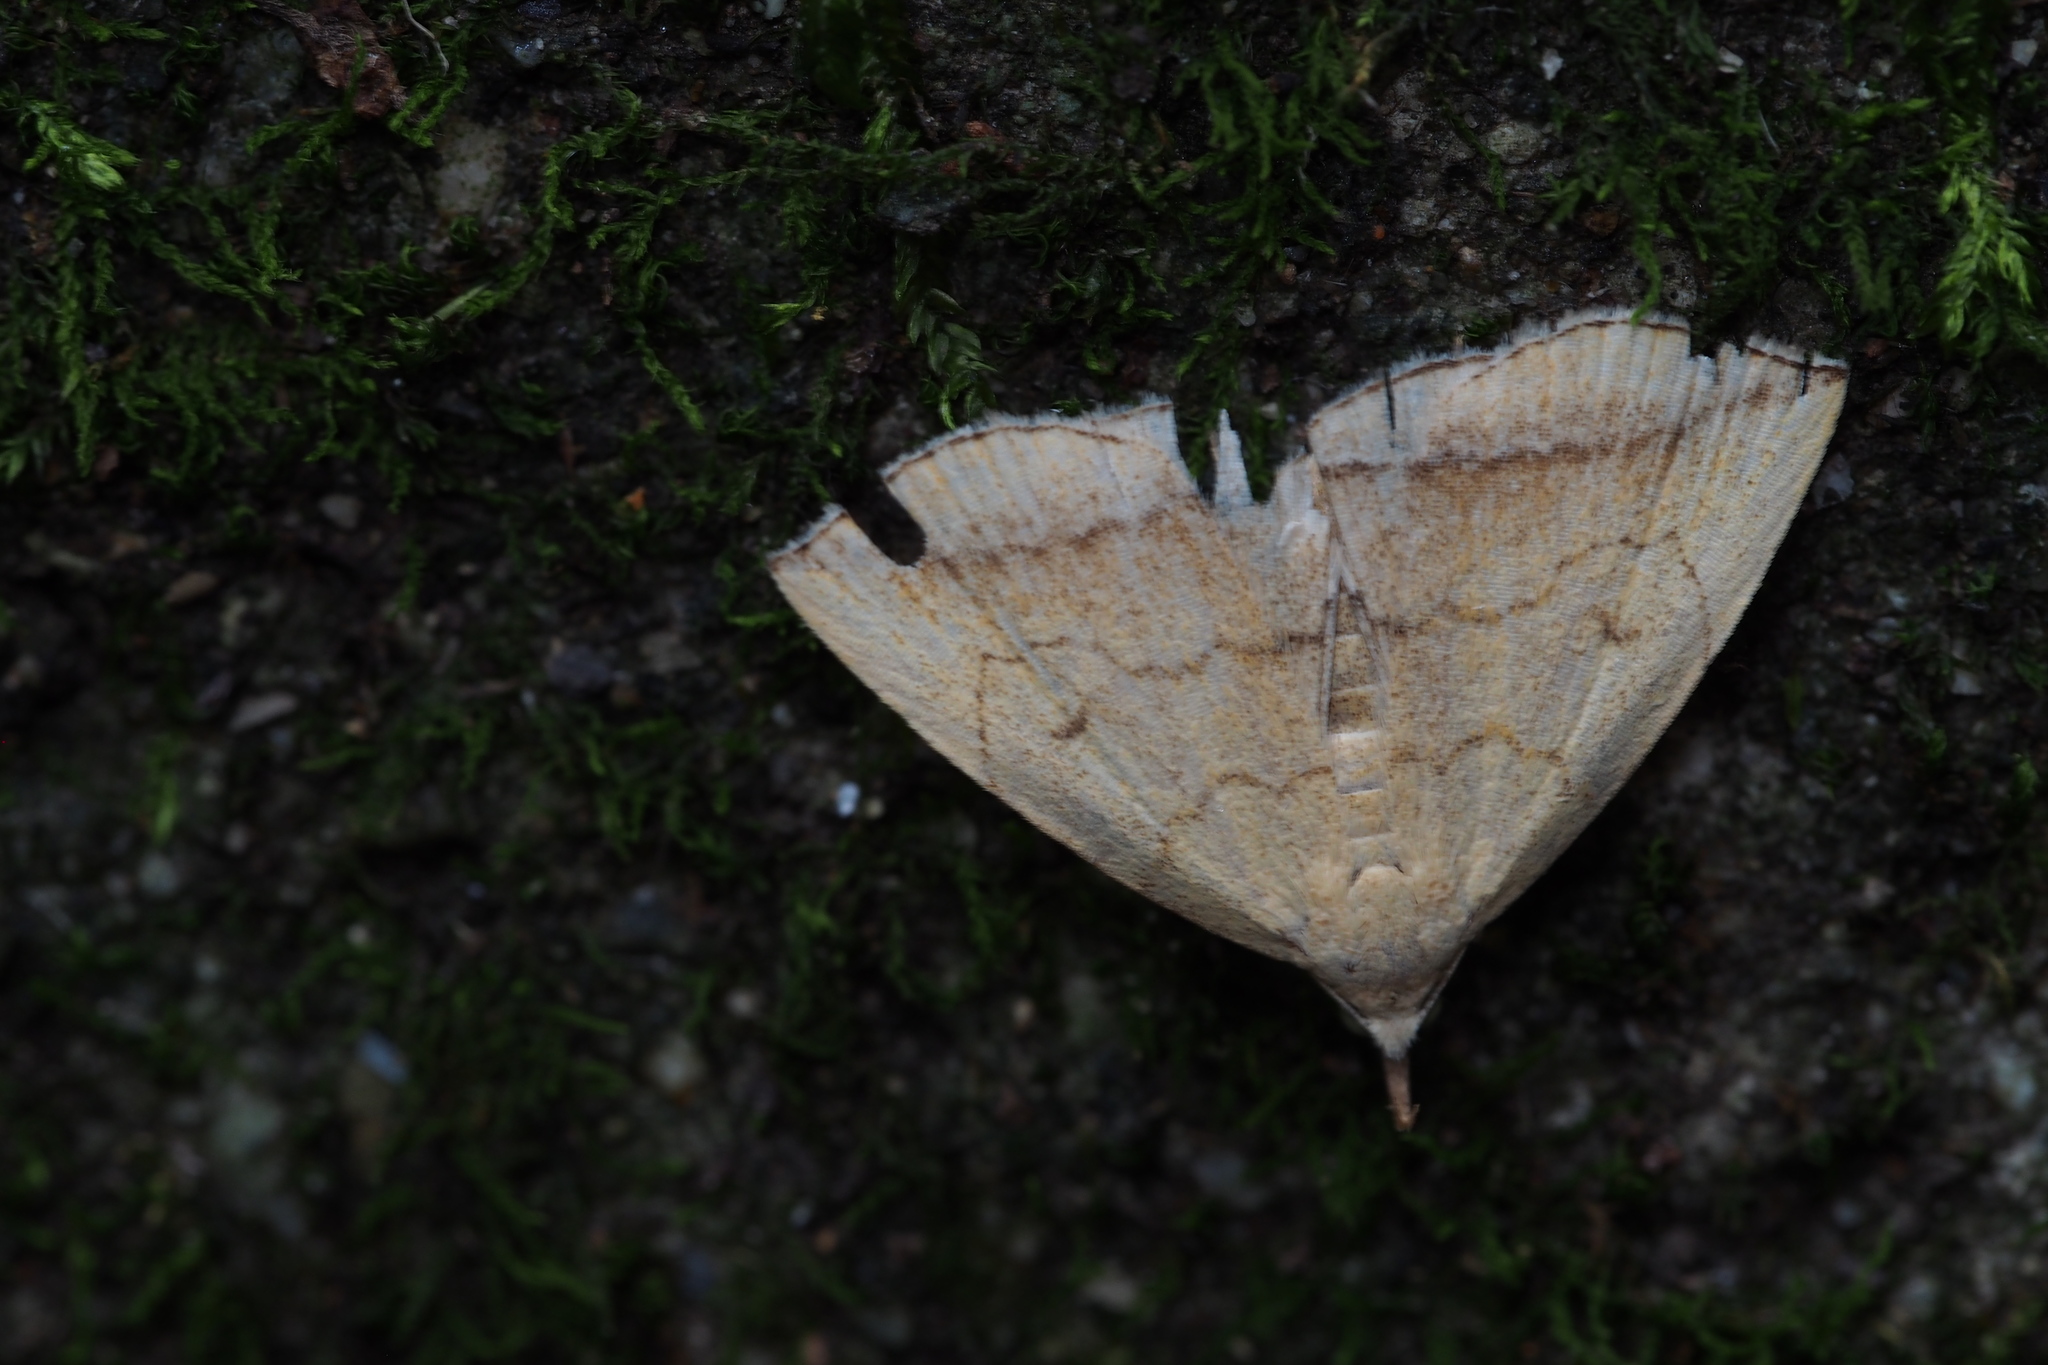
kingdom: Animalia
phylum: Arthropoda
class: Insecta
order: Lepidoptera
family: Erebidae
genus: Zanclognatha
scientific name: Zanclognatha helva
